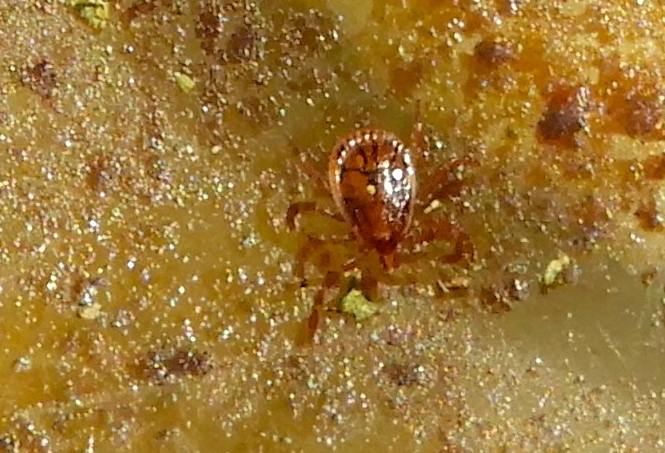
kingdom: Animalia
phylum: Arthropoda
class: Arachnida
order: Ixodida
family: Ixodidae
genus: Amblyomma
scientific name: Amblyomma
